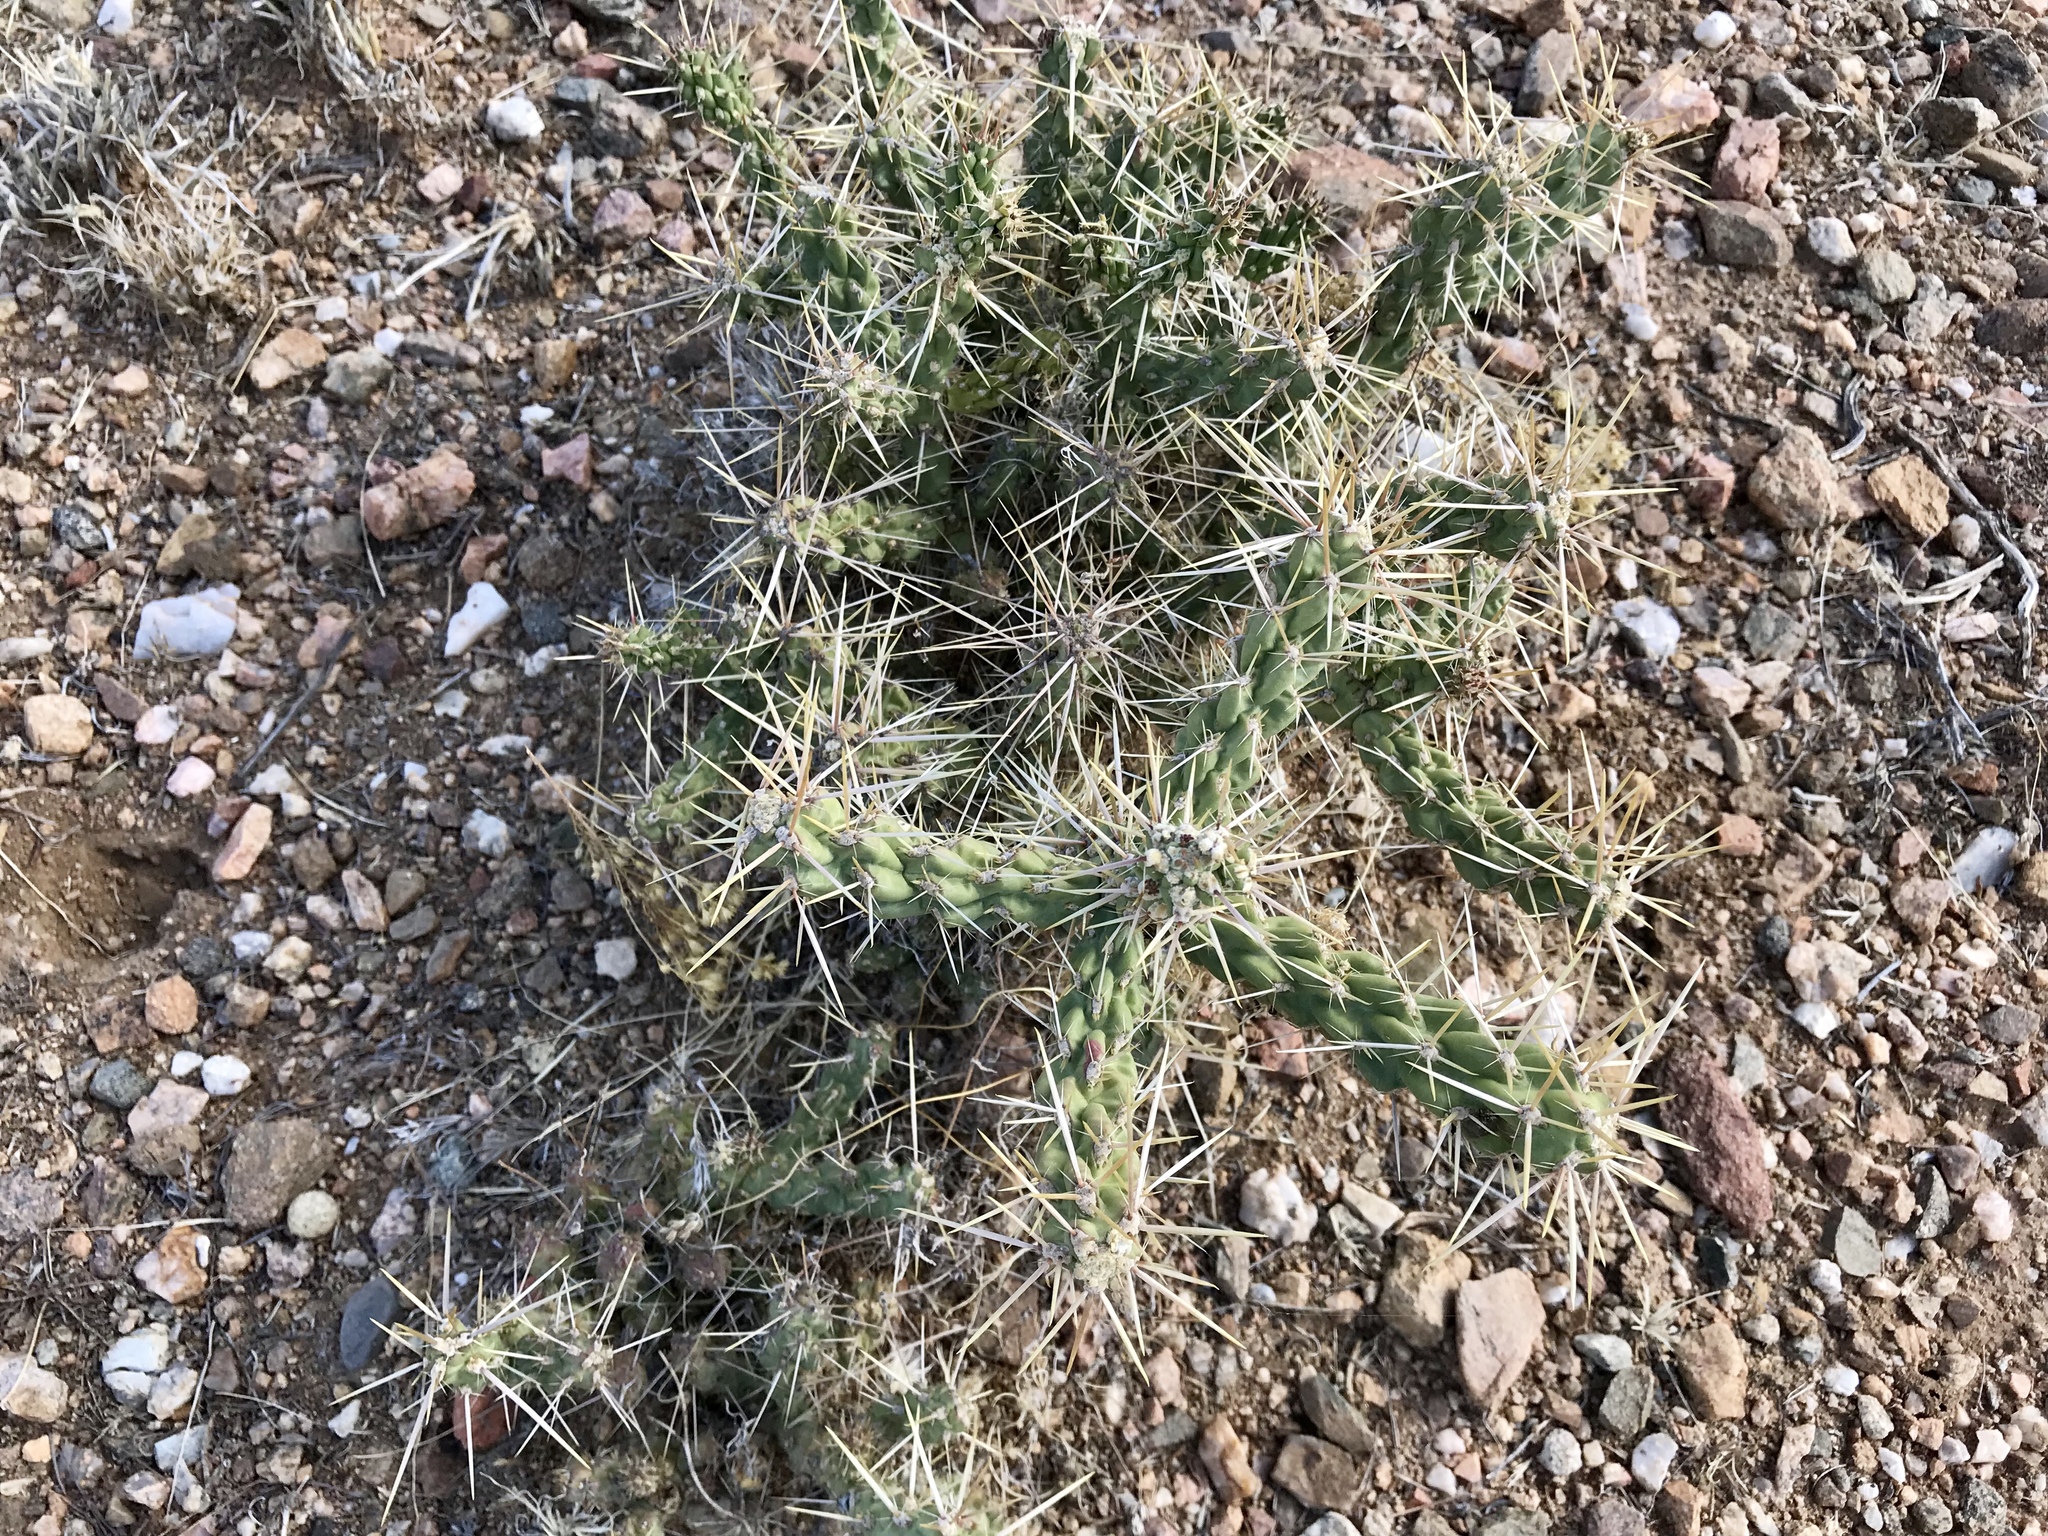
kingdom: Plantae
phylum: Tracheophyta
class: Magnoliopsida
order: Caryophyllales
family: Cactaceae
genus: Cylindropuntia
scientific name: Cylindropuntia whipplei
